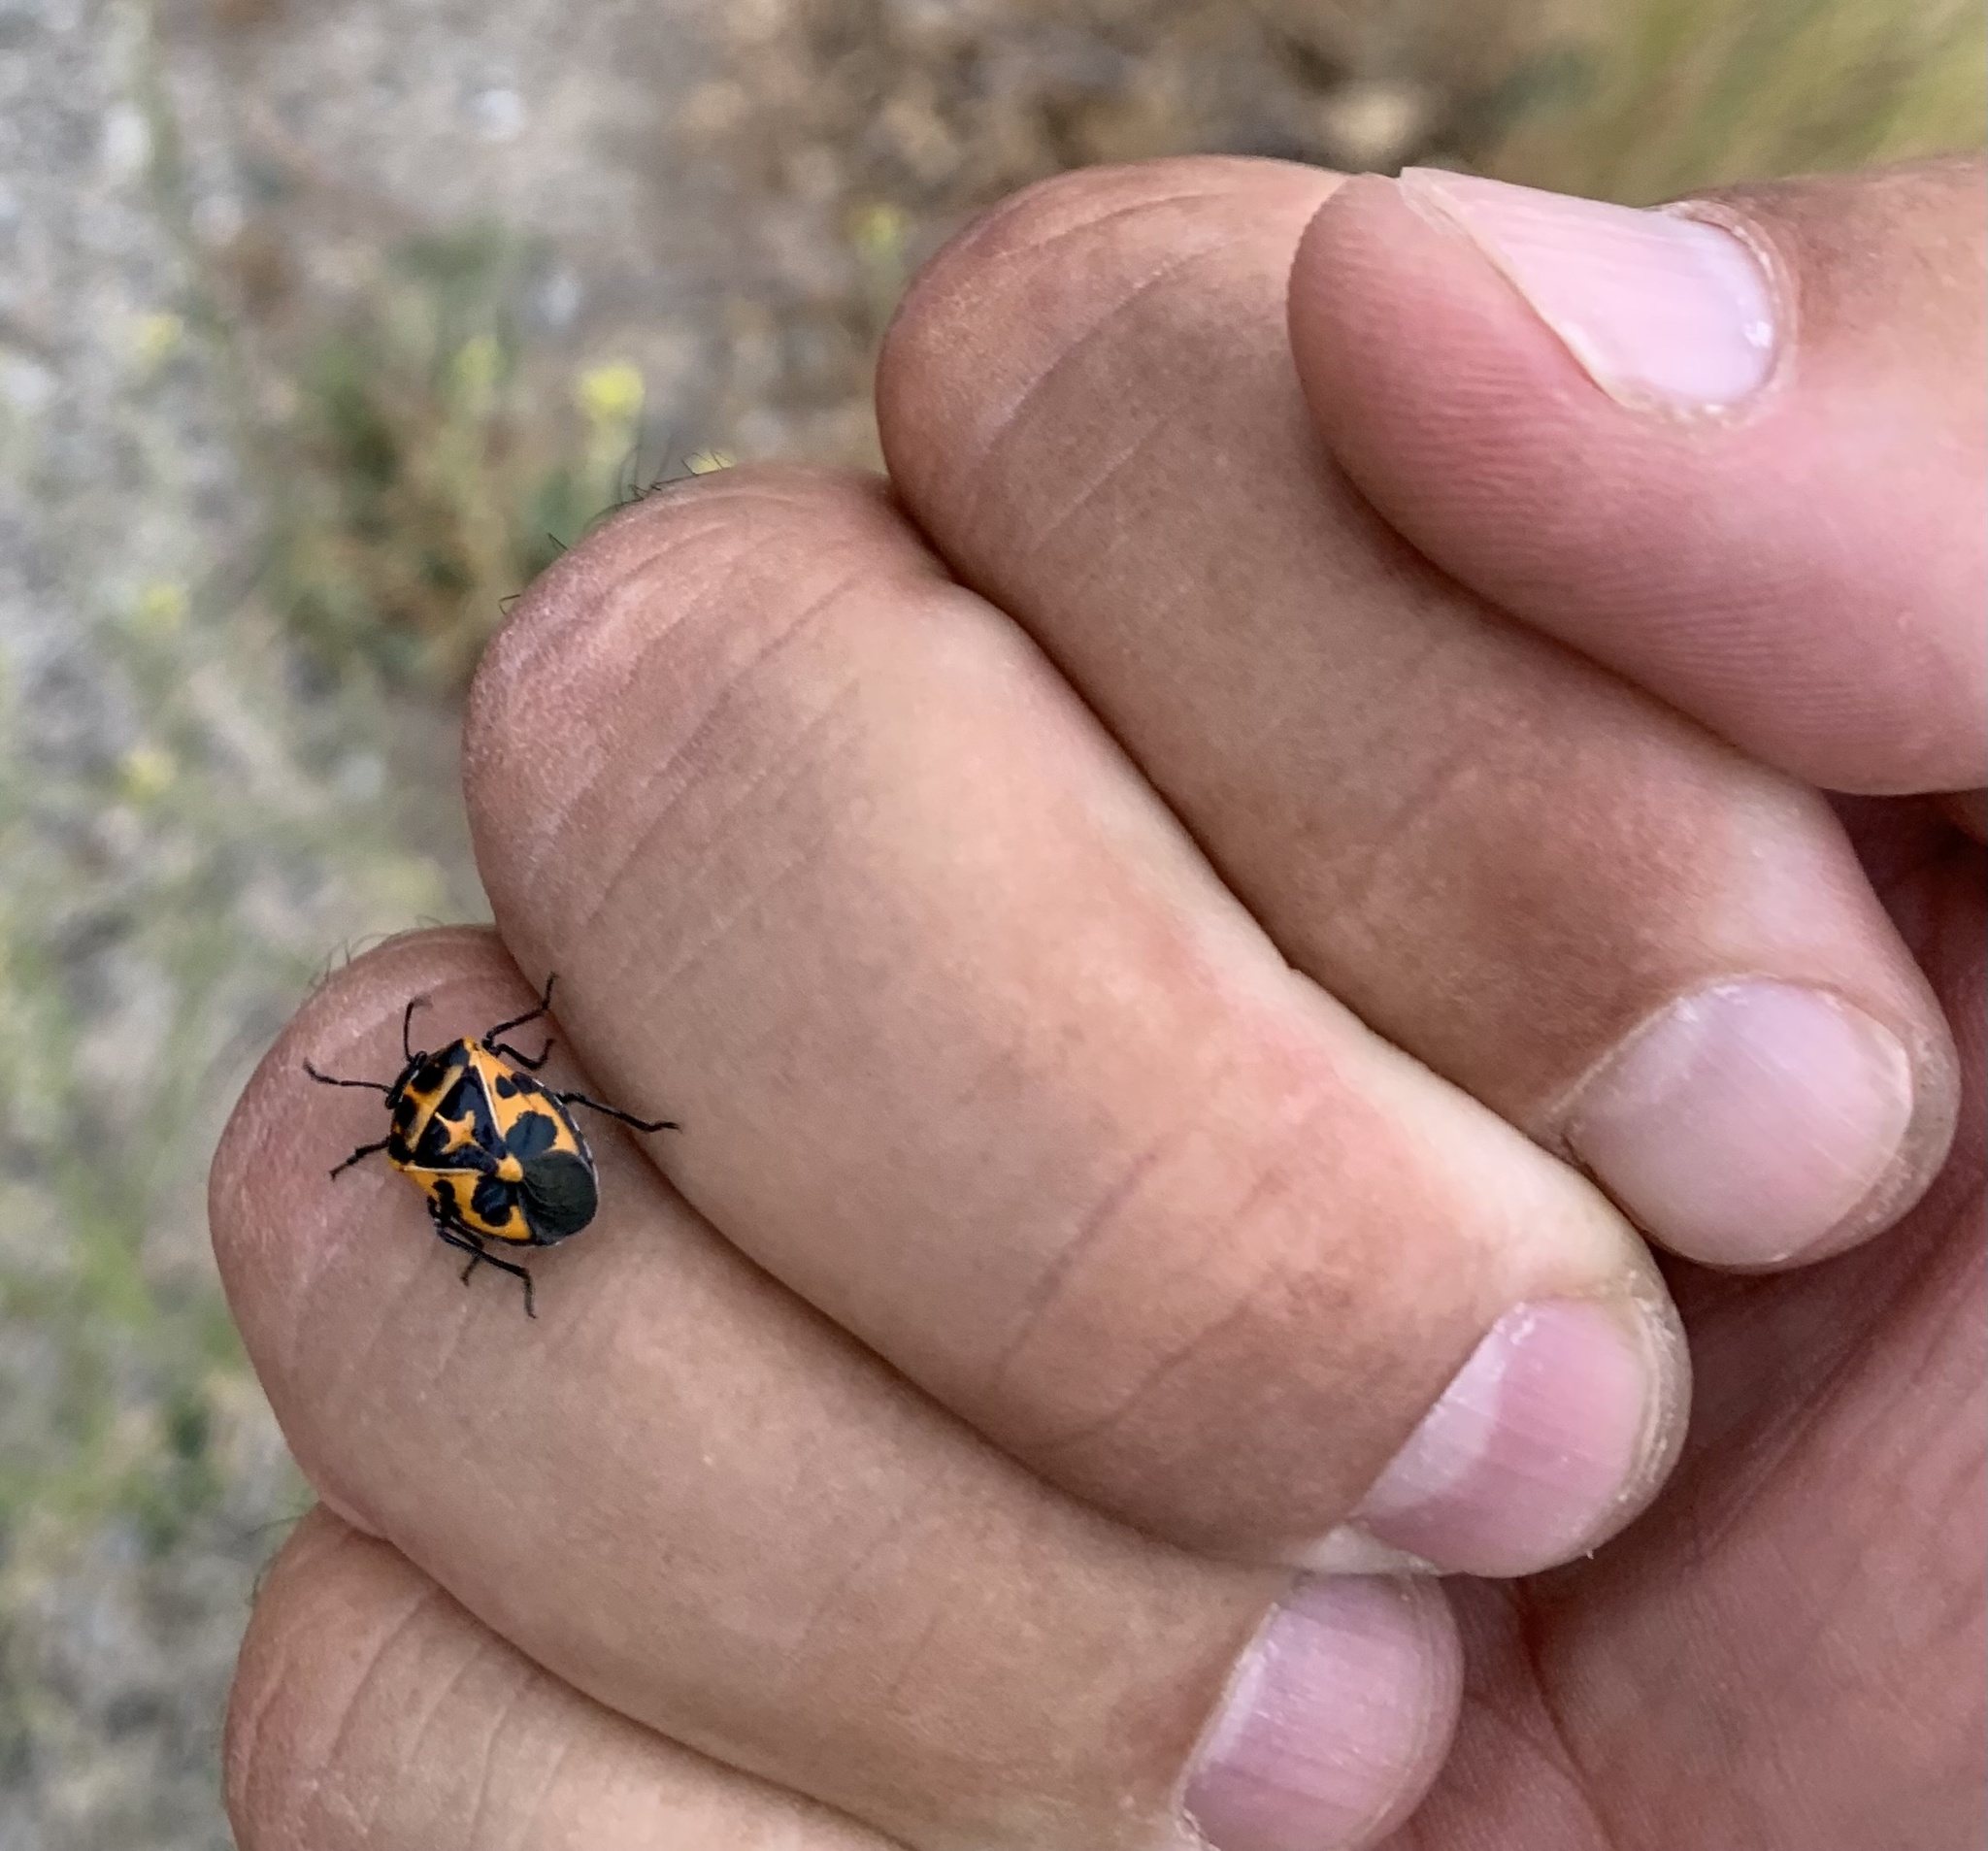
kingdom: Animalia
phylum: Arthropoda
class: Insecta
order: Hemiptera
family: Pentatomidae
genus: Murgantia
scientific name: Murgantia histrionica
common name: Harlequin bug
